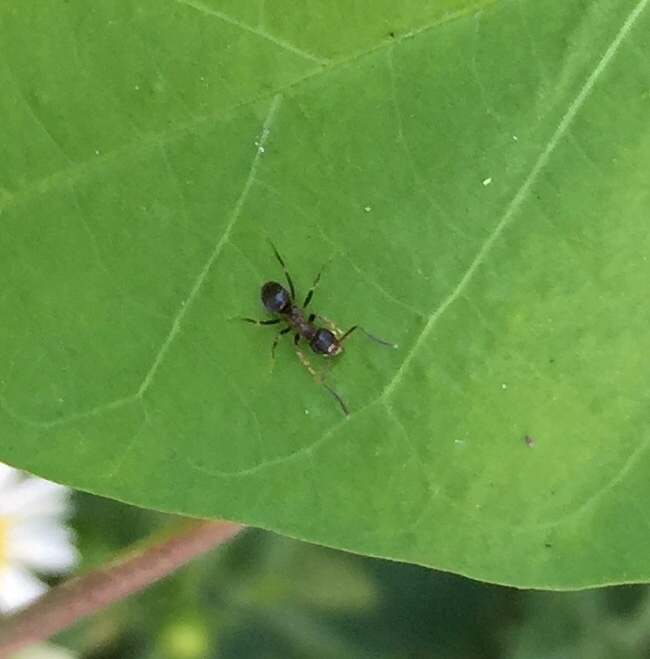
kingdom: Animalia
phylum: Arthropoda
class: Insecta
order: Hymenoptera
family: Formicidae
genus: Lasius
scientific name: Lasius emarginatus
